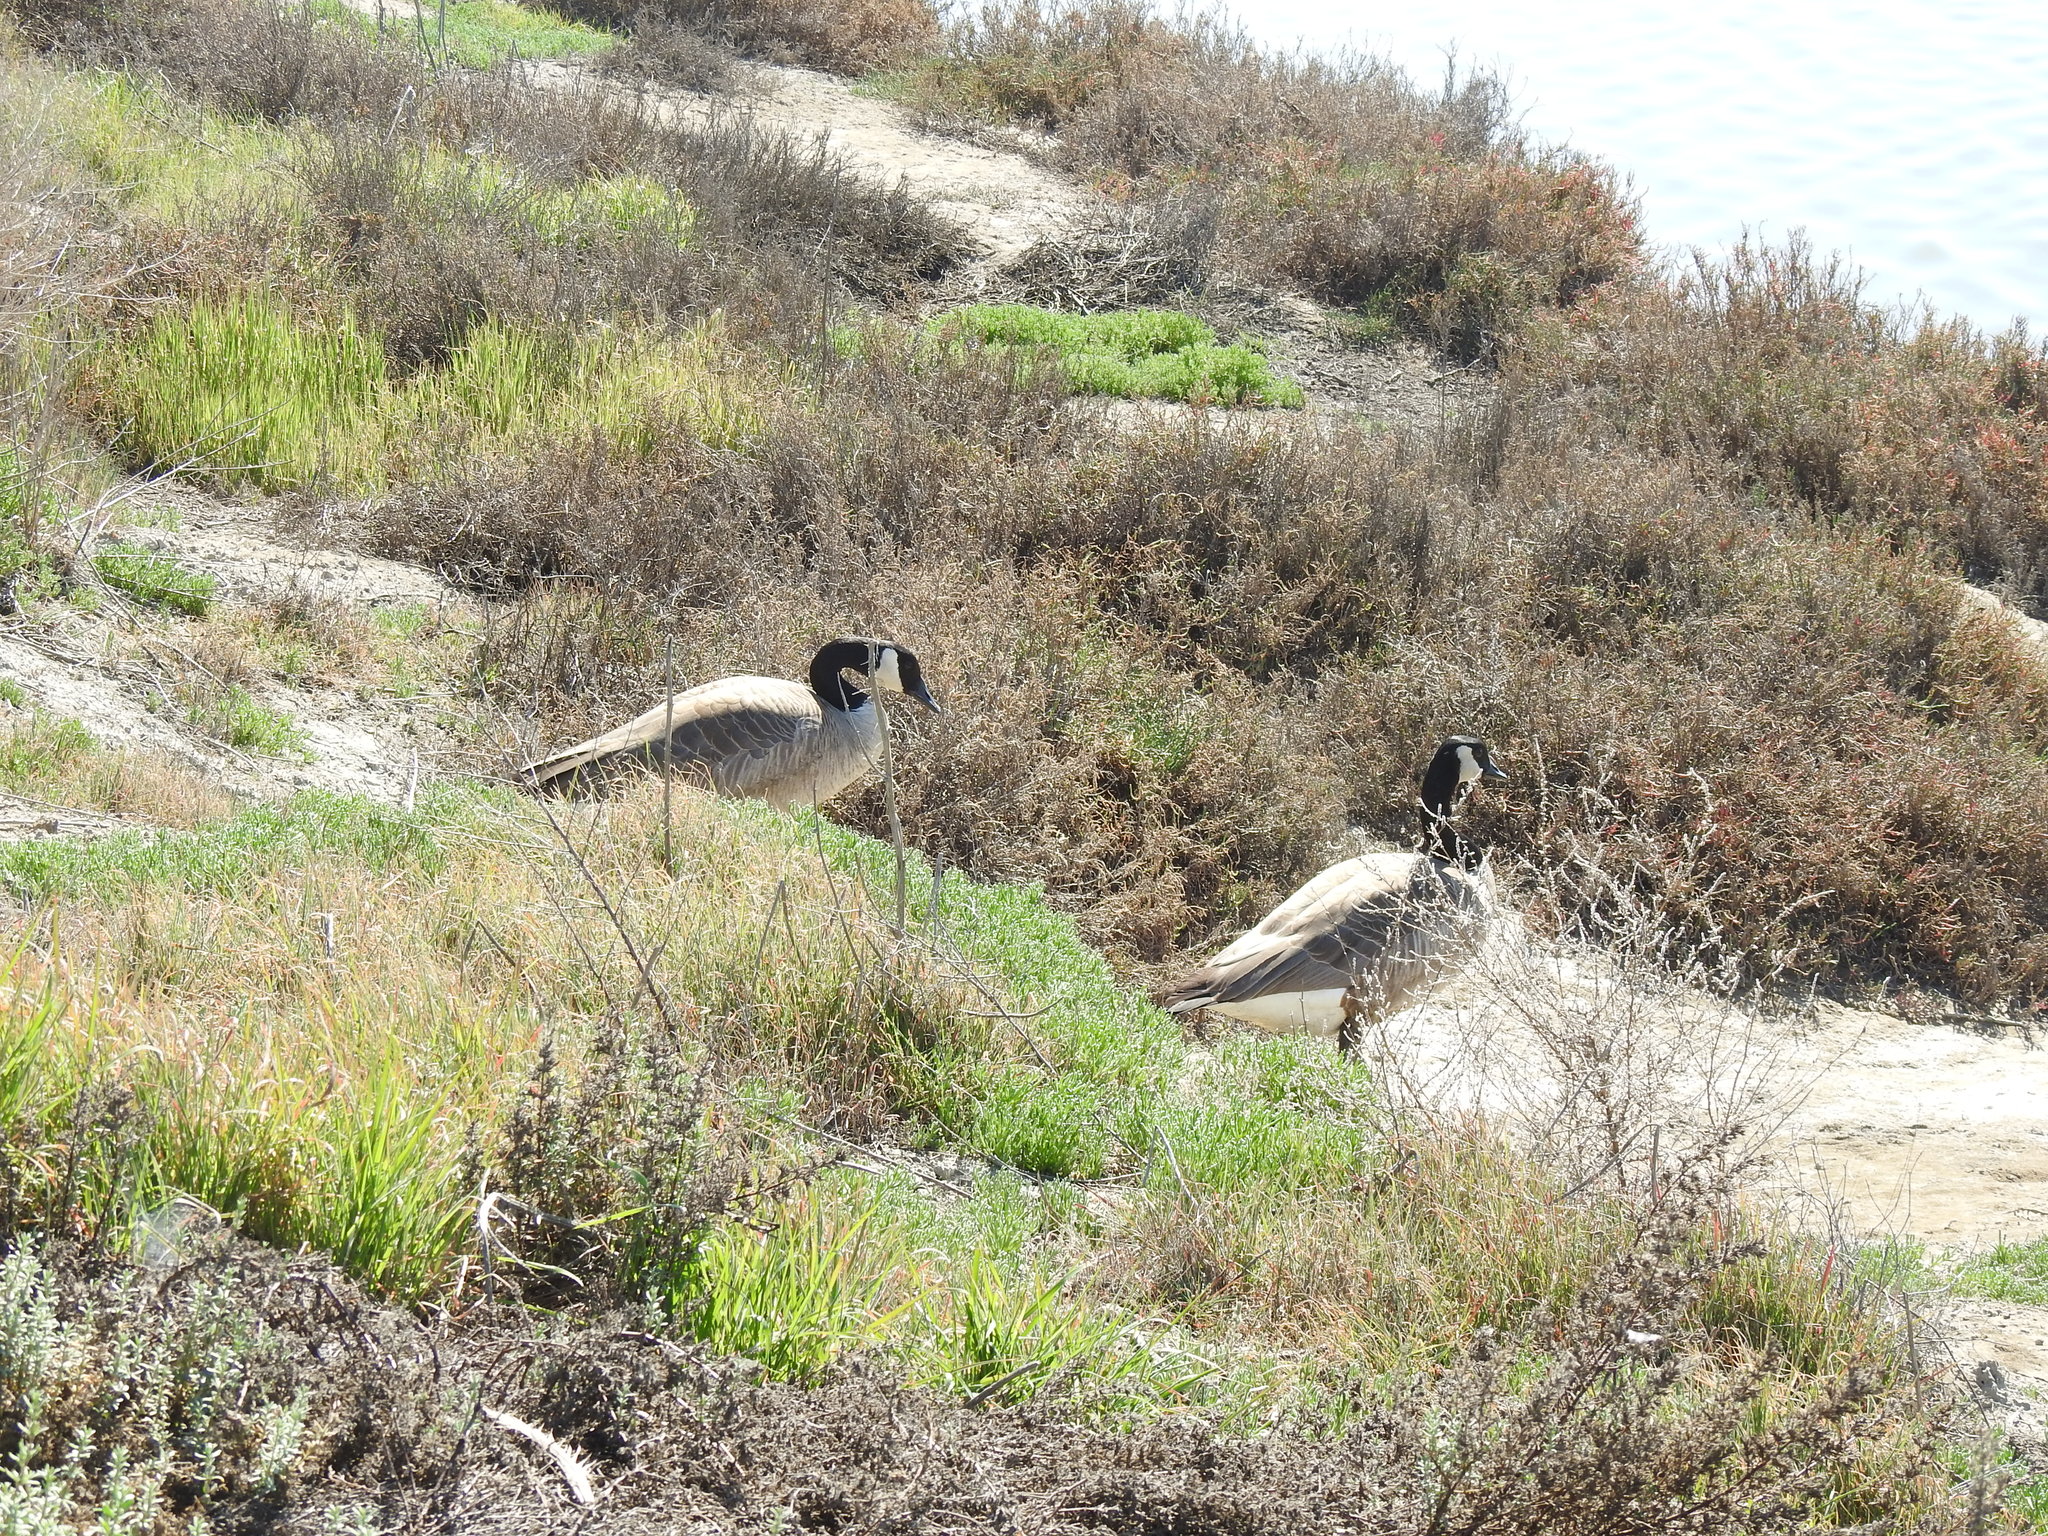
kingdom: Animalia
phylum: Chordata
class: Aves
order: Anseriformes
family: Anatidae
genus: Branta
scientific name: Branta canadensis
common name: Canada goose
